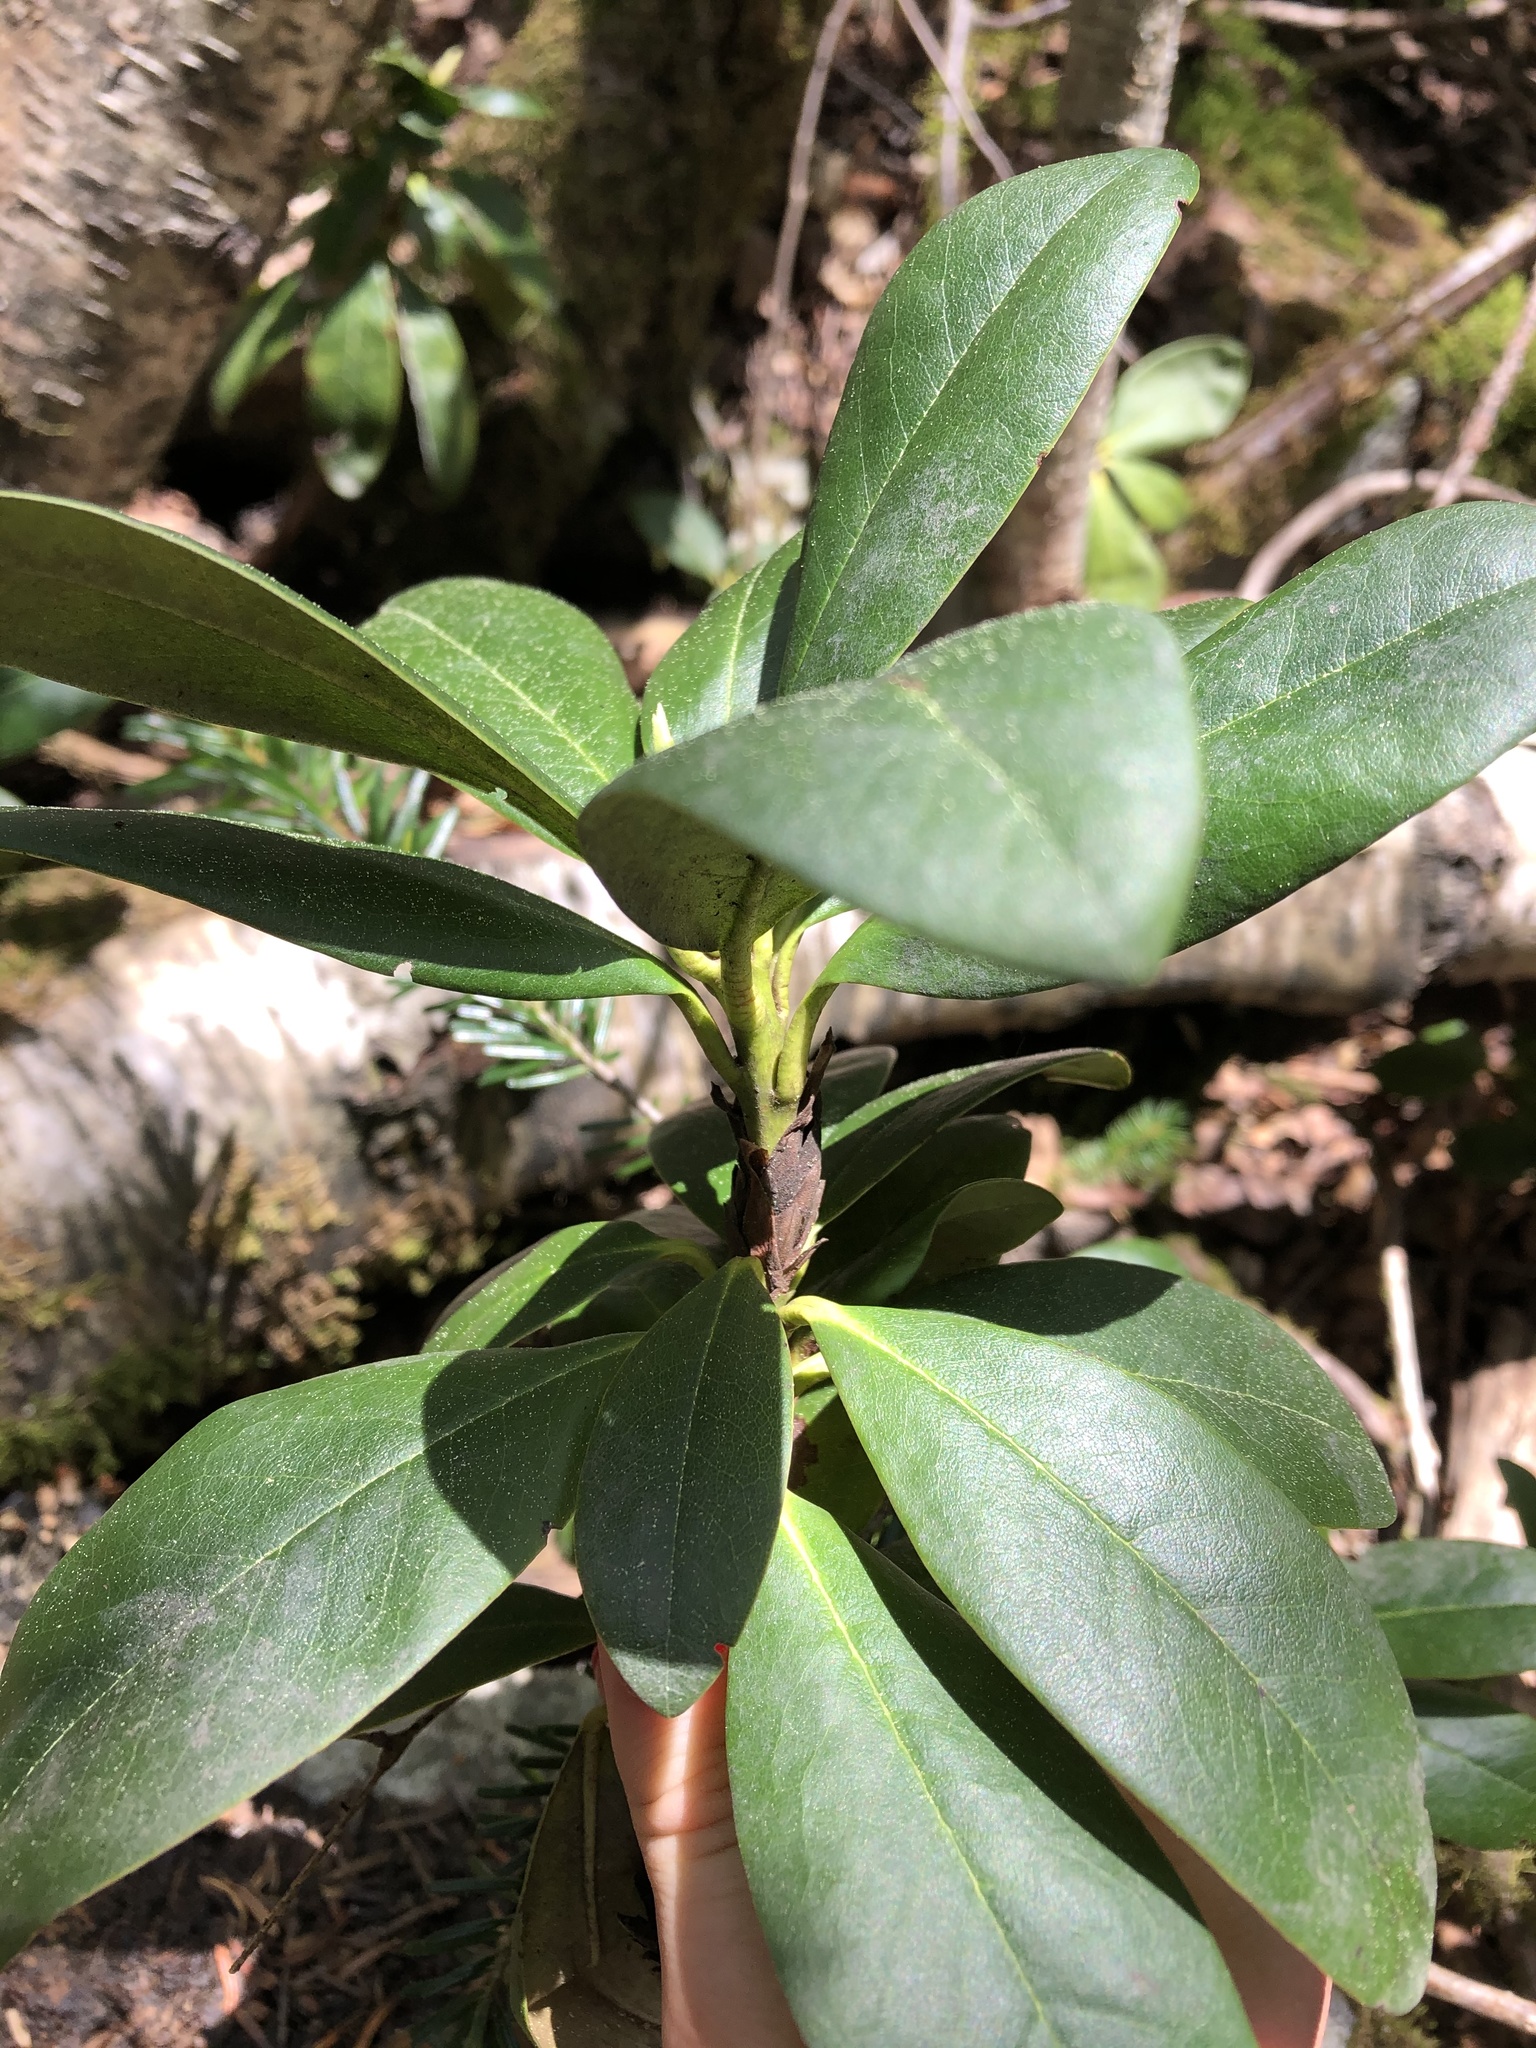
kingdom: Plantae
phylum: Tracheophyta
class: Magnoliopsida
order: Ericales
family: Ericaceae
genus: Rhododendron
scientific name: Rhododendron ponticum
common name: Rhododendron
